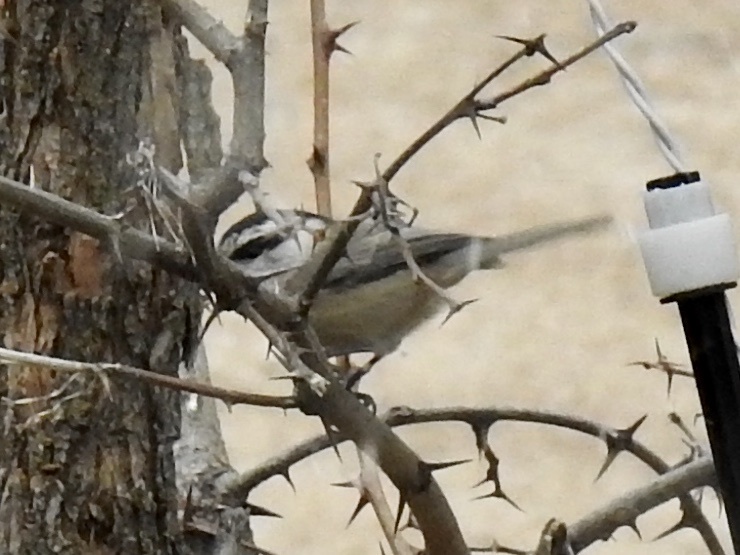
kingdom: Animalia
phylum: Chordata
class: Aves
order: Passeriformes
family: Paridae
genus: Poecile
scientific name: Poecile gambeli
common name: Mountain chickadee
